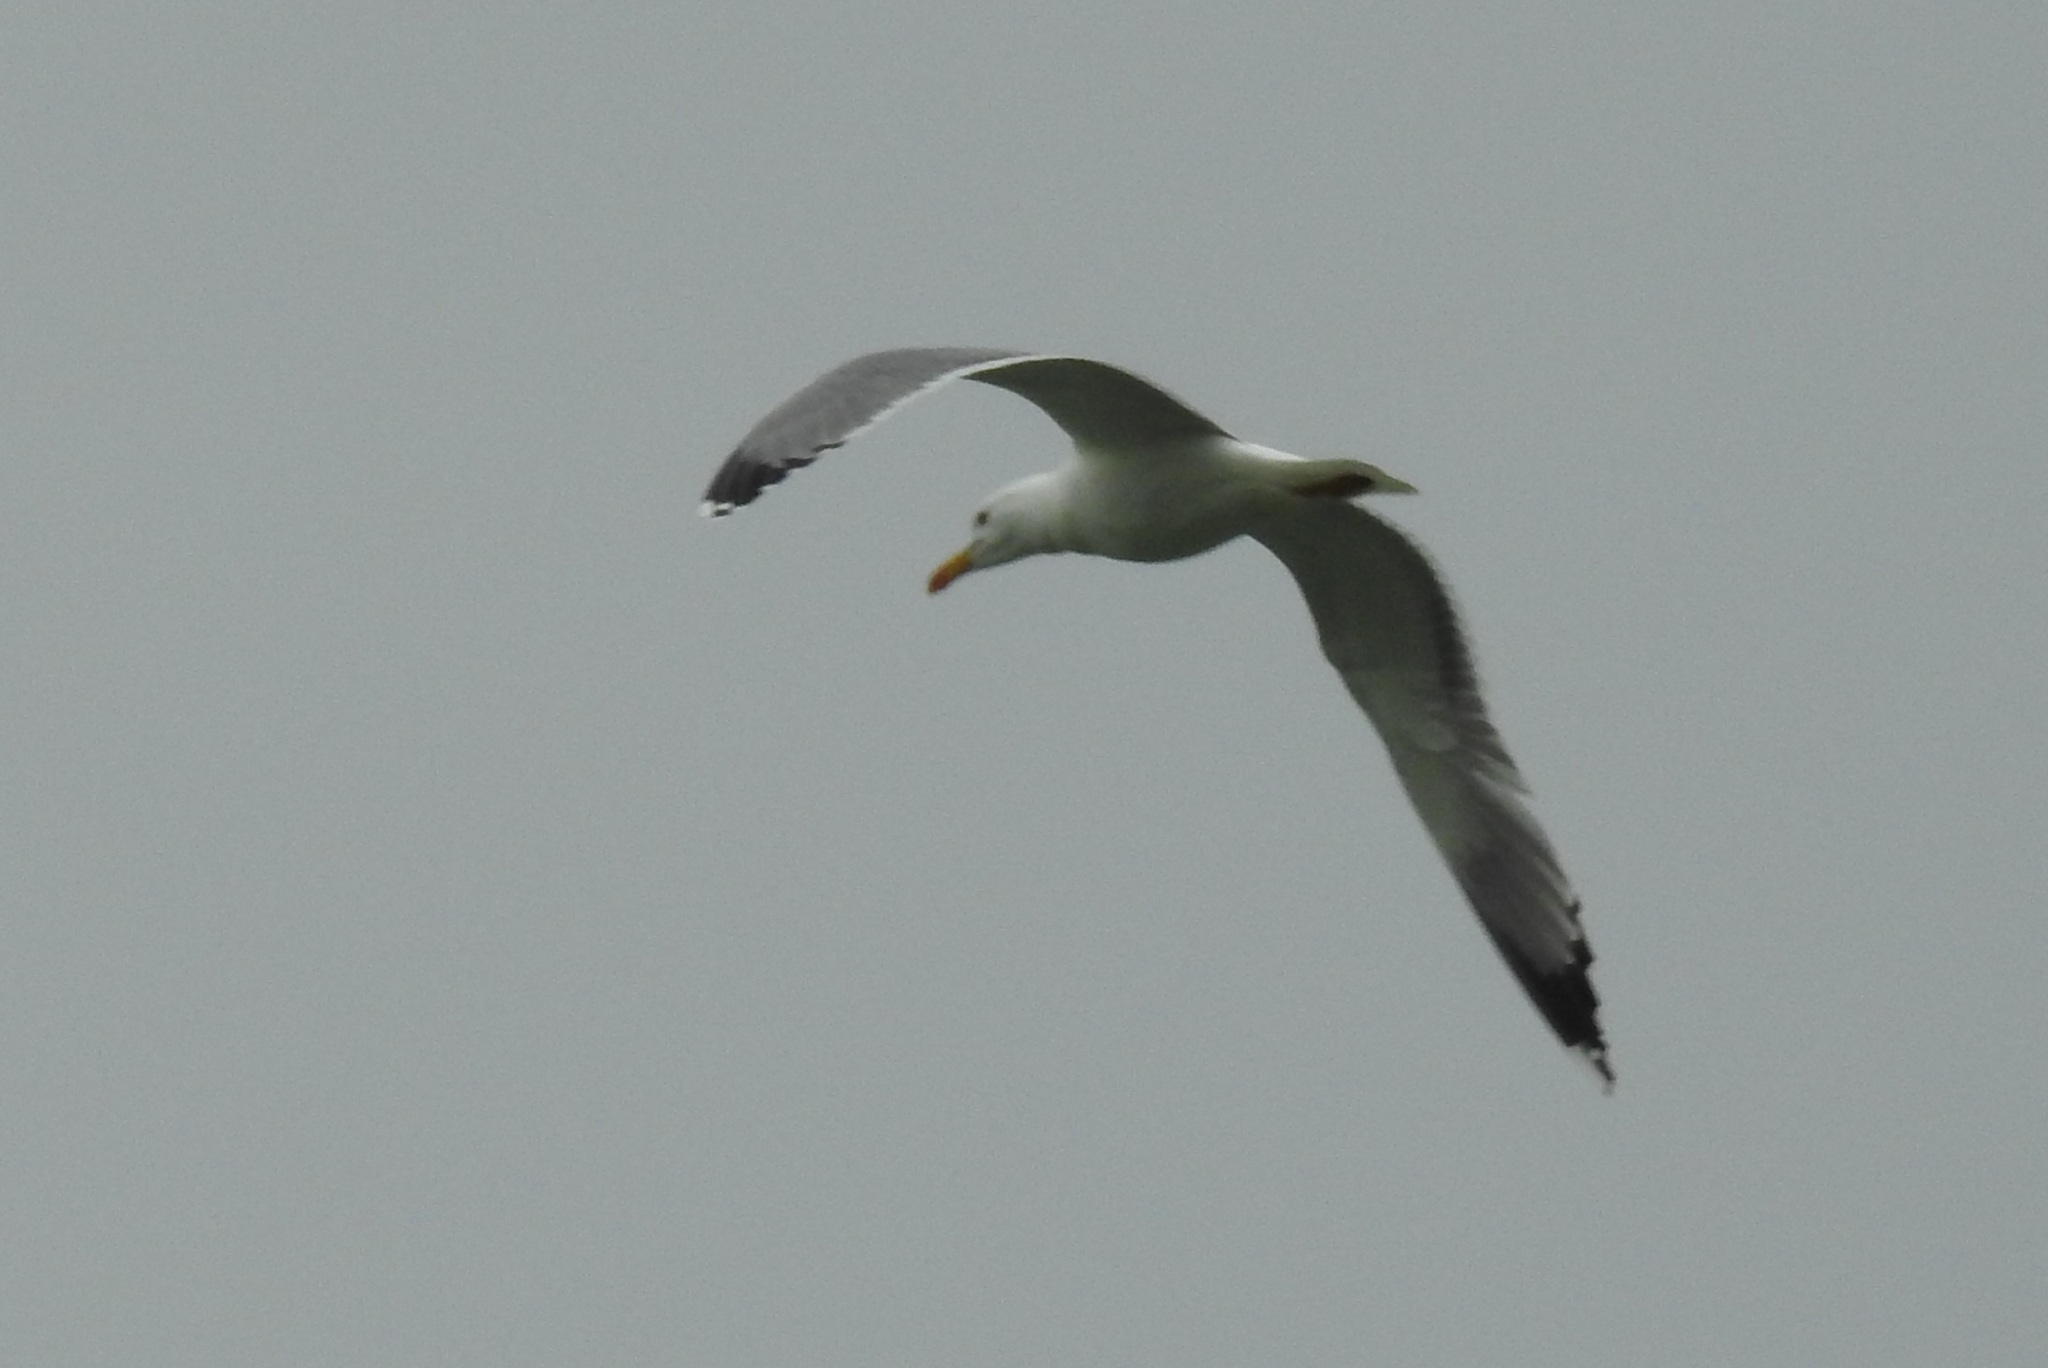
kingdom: Animalia
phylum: Chordata
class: Aves
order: Charadriiformes
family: Laridae
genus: Larus
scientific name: Larus michahellis
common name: Yellow-legged gull
